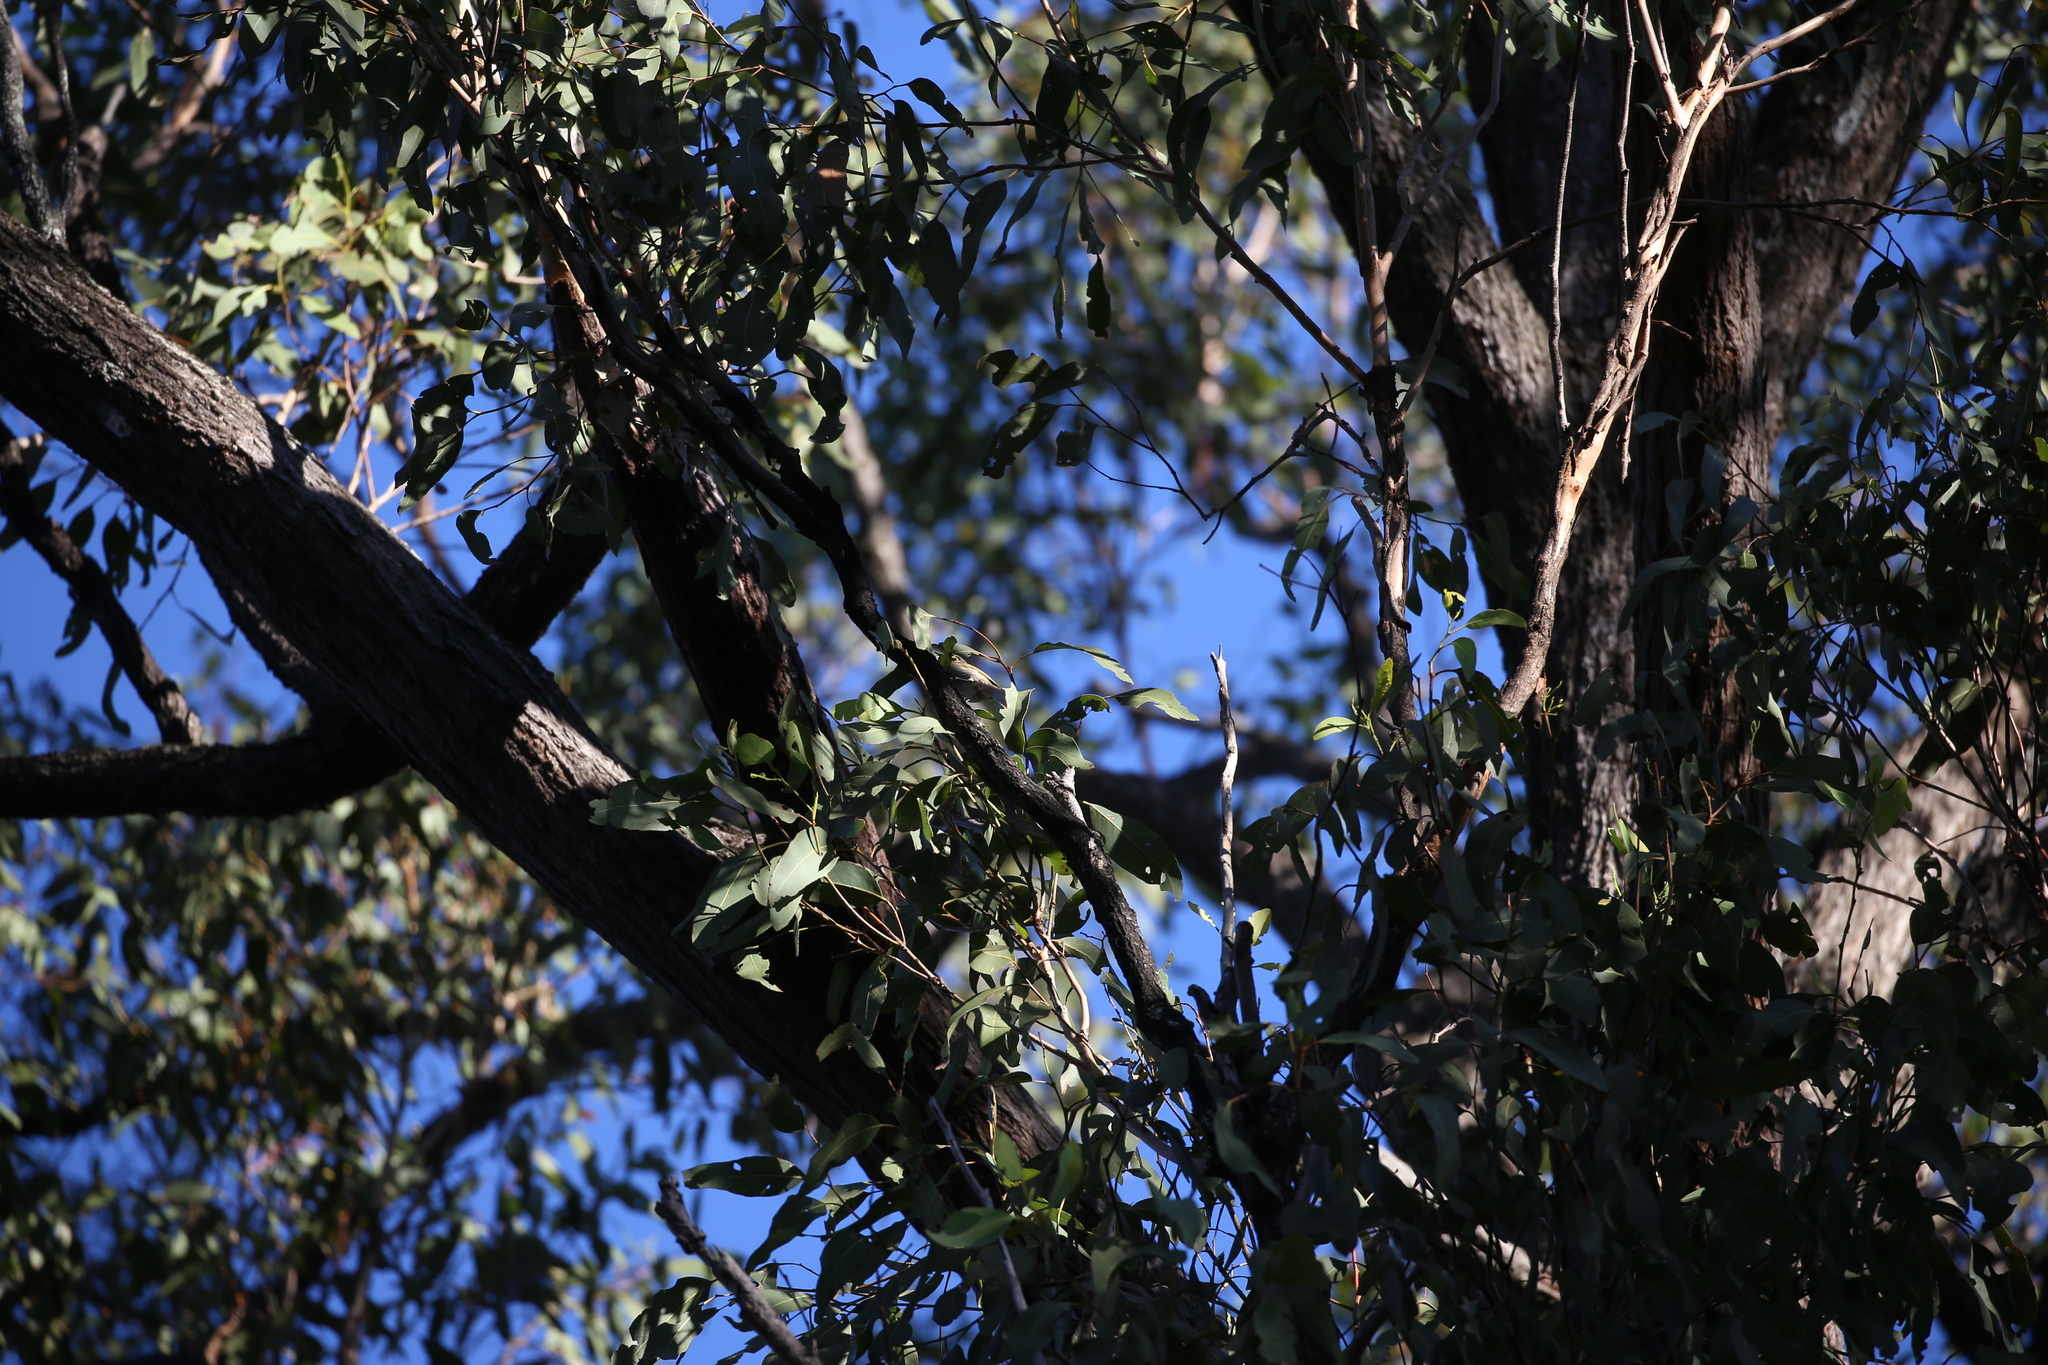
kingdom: Animalia
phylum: Chordata
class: Aves
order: Passeriformes
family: Meliphagidae
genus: Caligavis
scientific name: Caligavis chrysops
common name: Yellow-faced honeyeater
